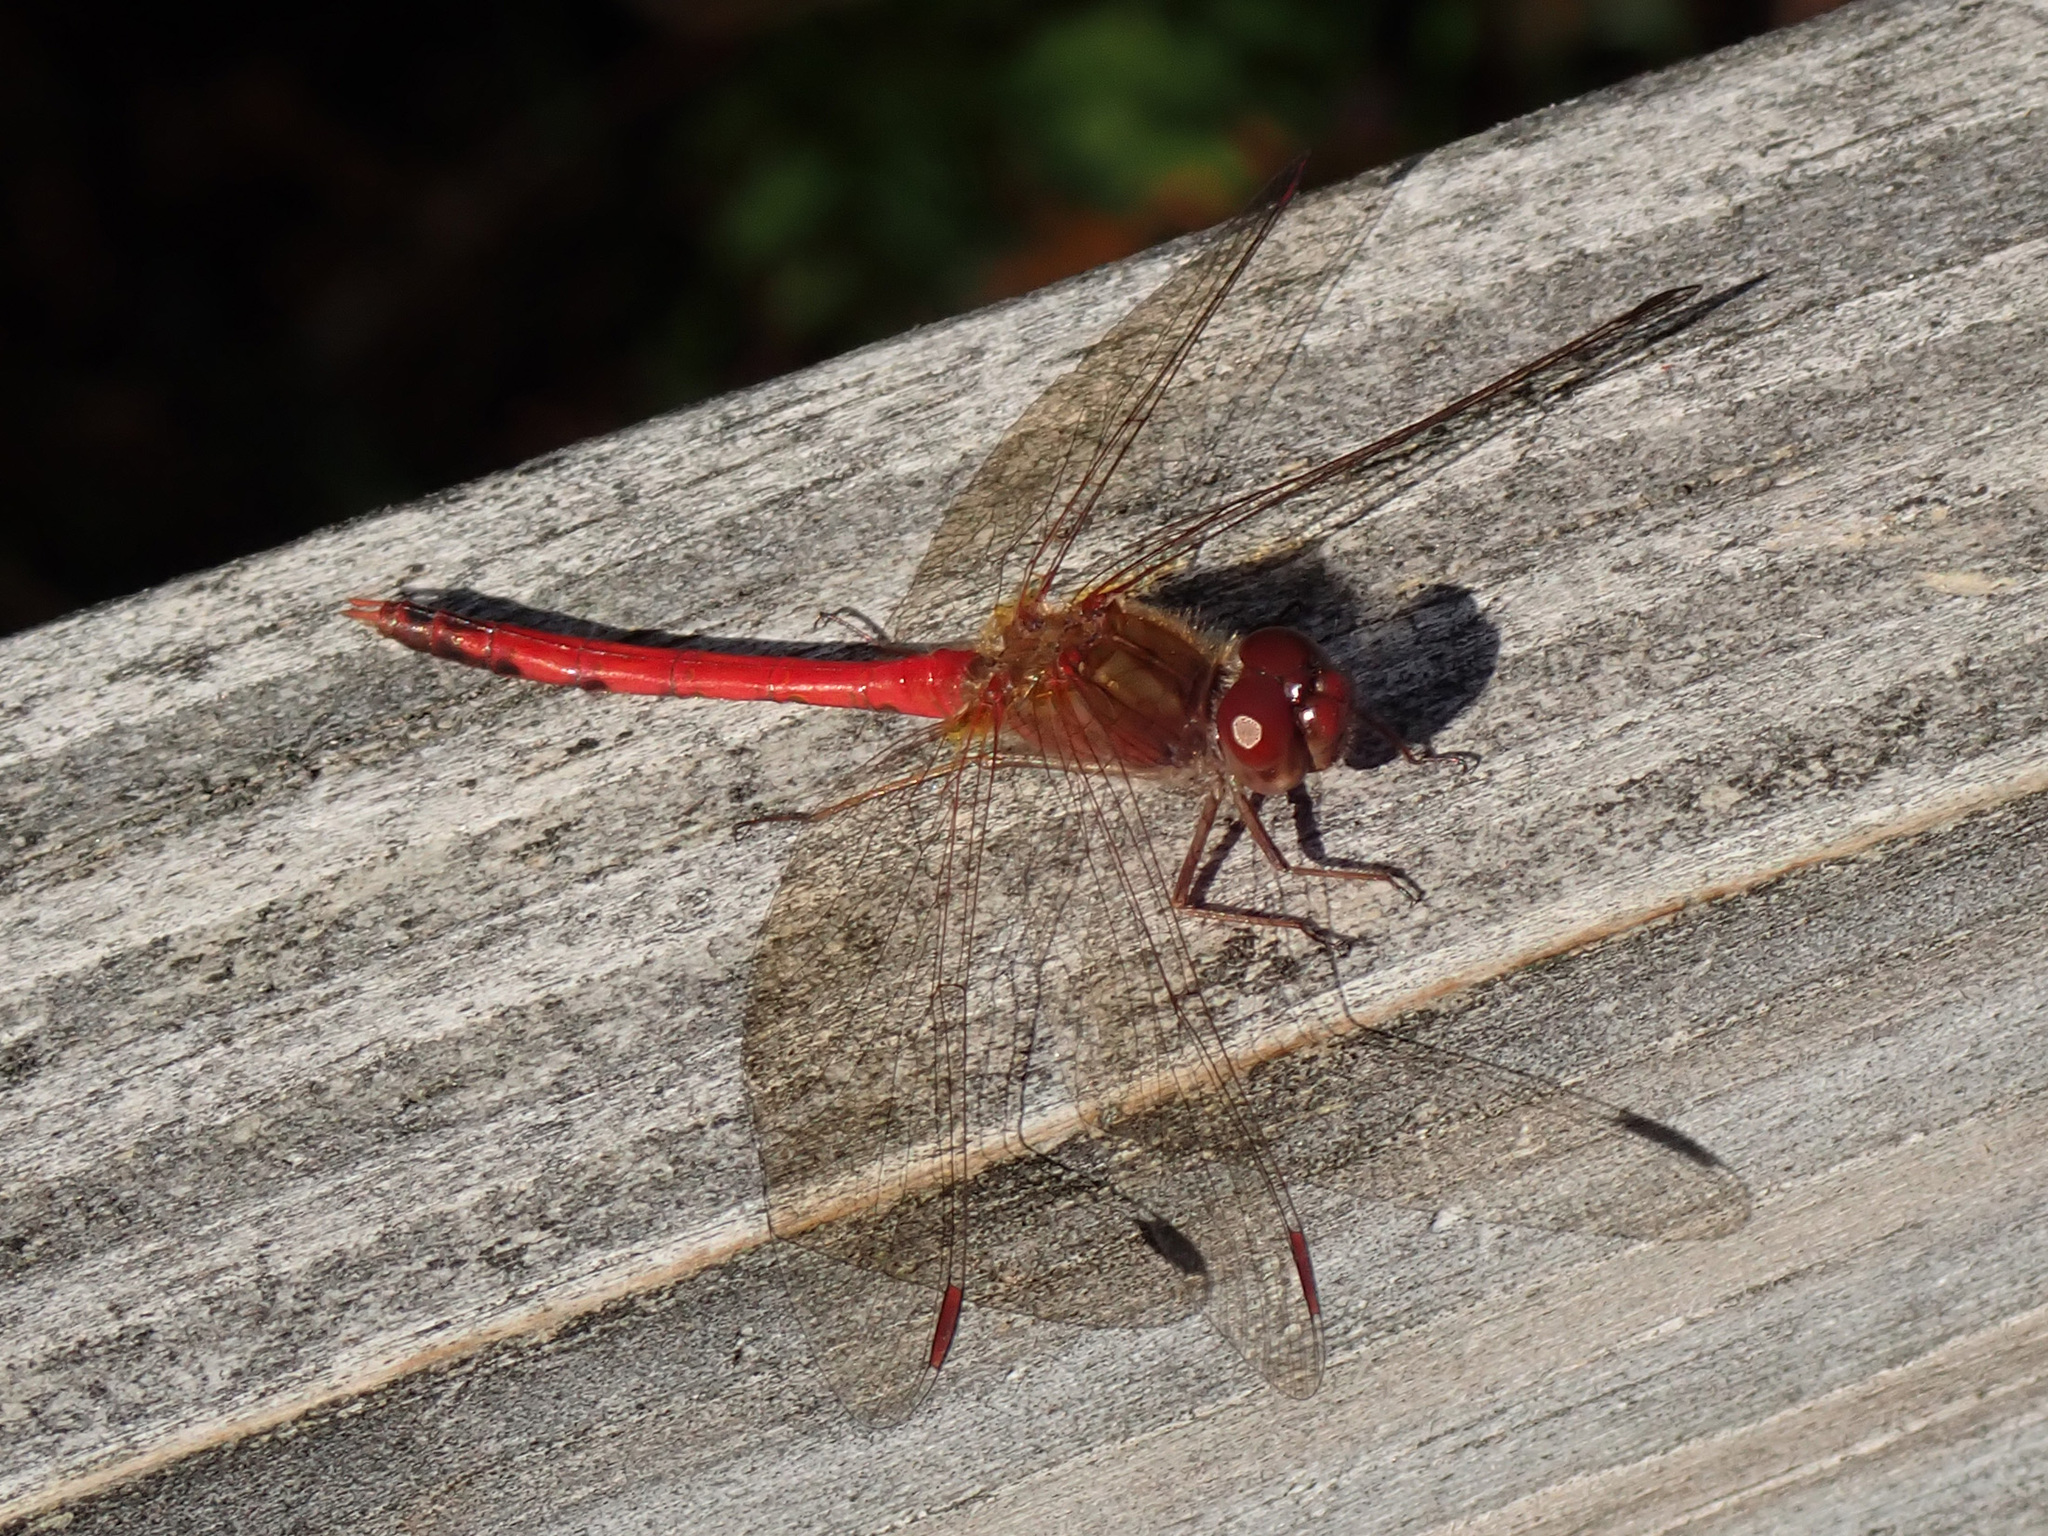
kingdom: Animalia
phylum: Arthropoda
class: Insecta
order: Odonata
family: Libellulidae
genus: Sympetrum
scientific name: Sympetrum vicinum
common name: Autumn meadowhawk
